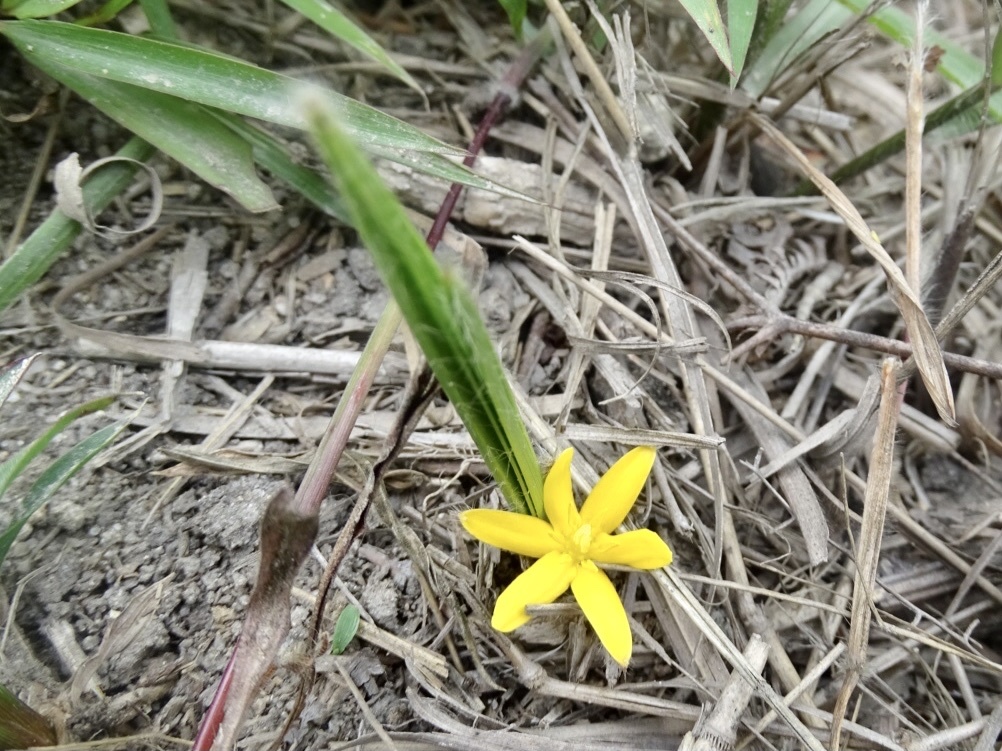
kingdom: Plantae
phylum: Tracheophyta
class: Liliopsida
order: Asparagales
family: Hypoxidaceae
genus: Curculigo
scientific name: Curculigo orchioides
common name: Golden eye-grass
